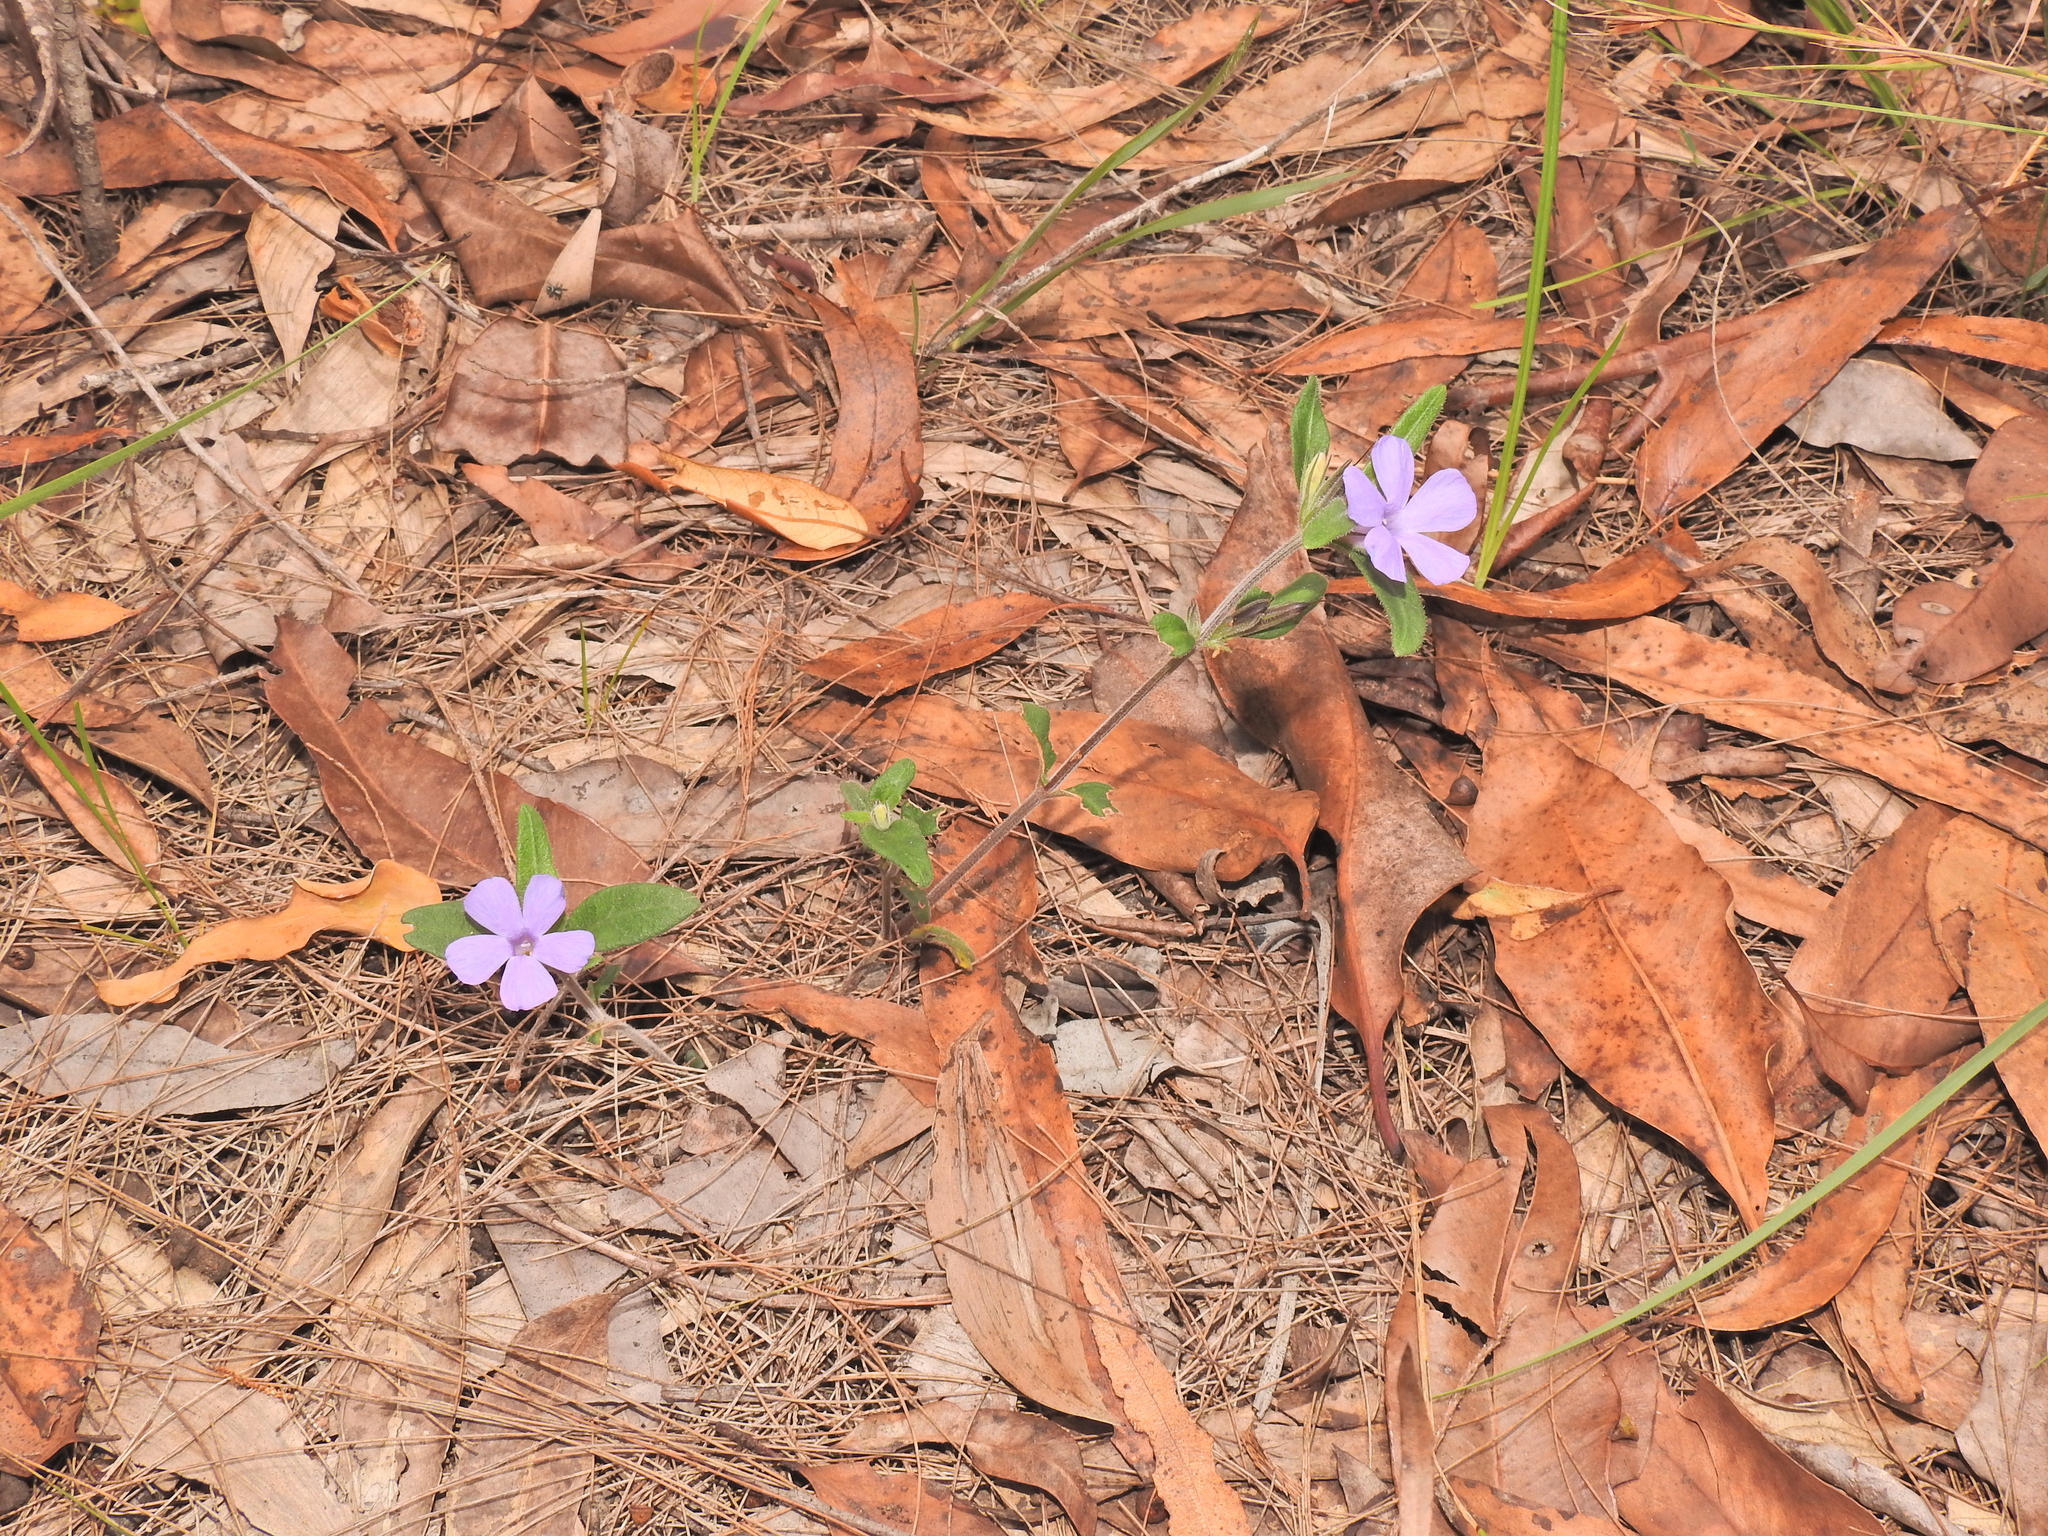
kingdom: Plantae
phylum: Tracheophyta
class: Magnoliopsida
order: Lamiales
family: Acanthaceae
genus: Brunoniella
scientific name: Brunoniella australis
